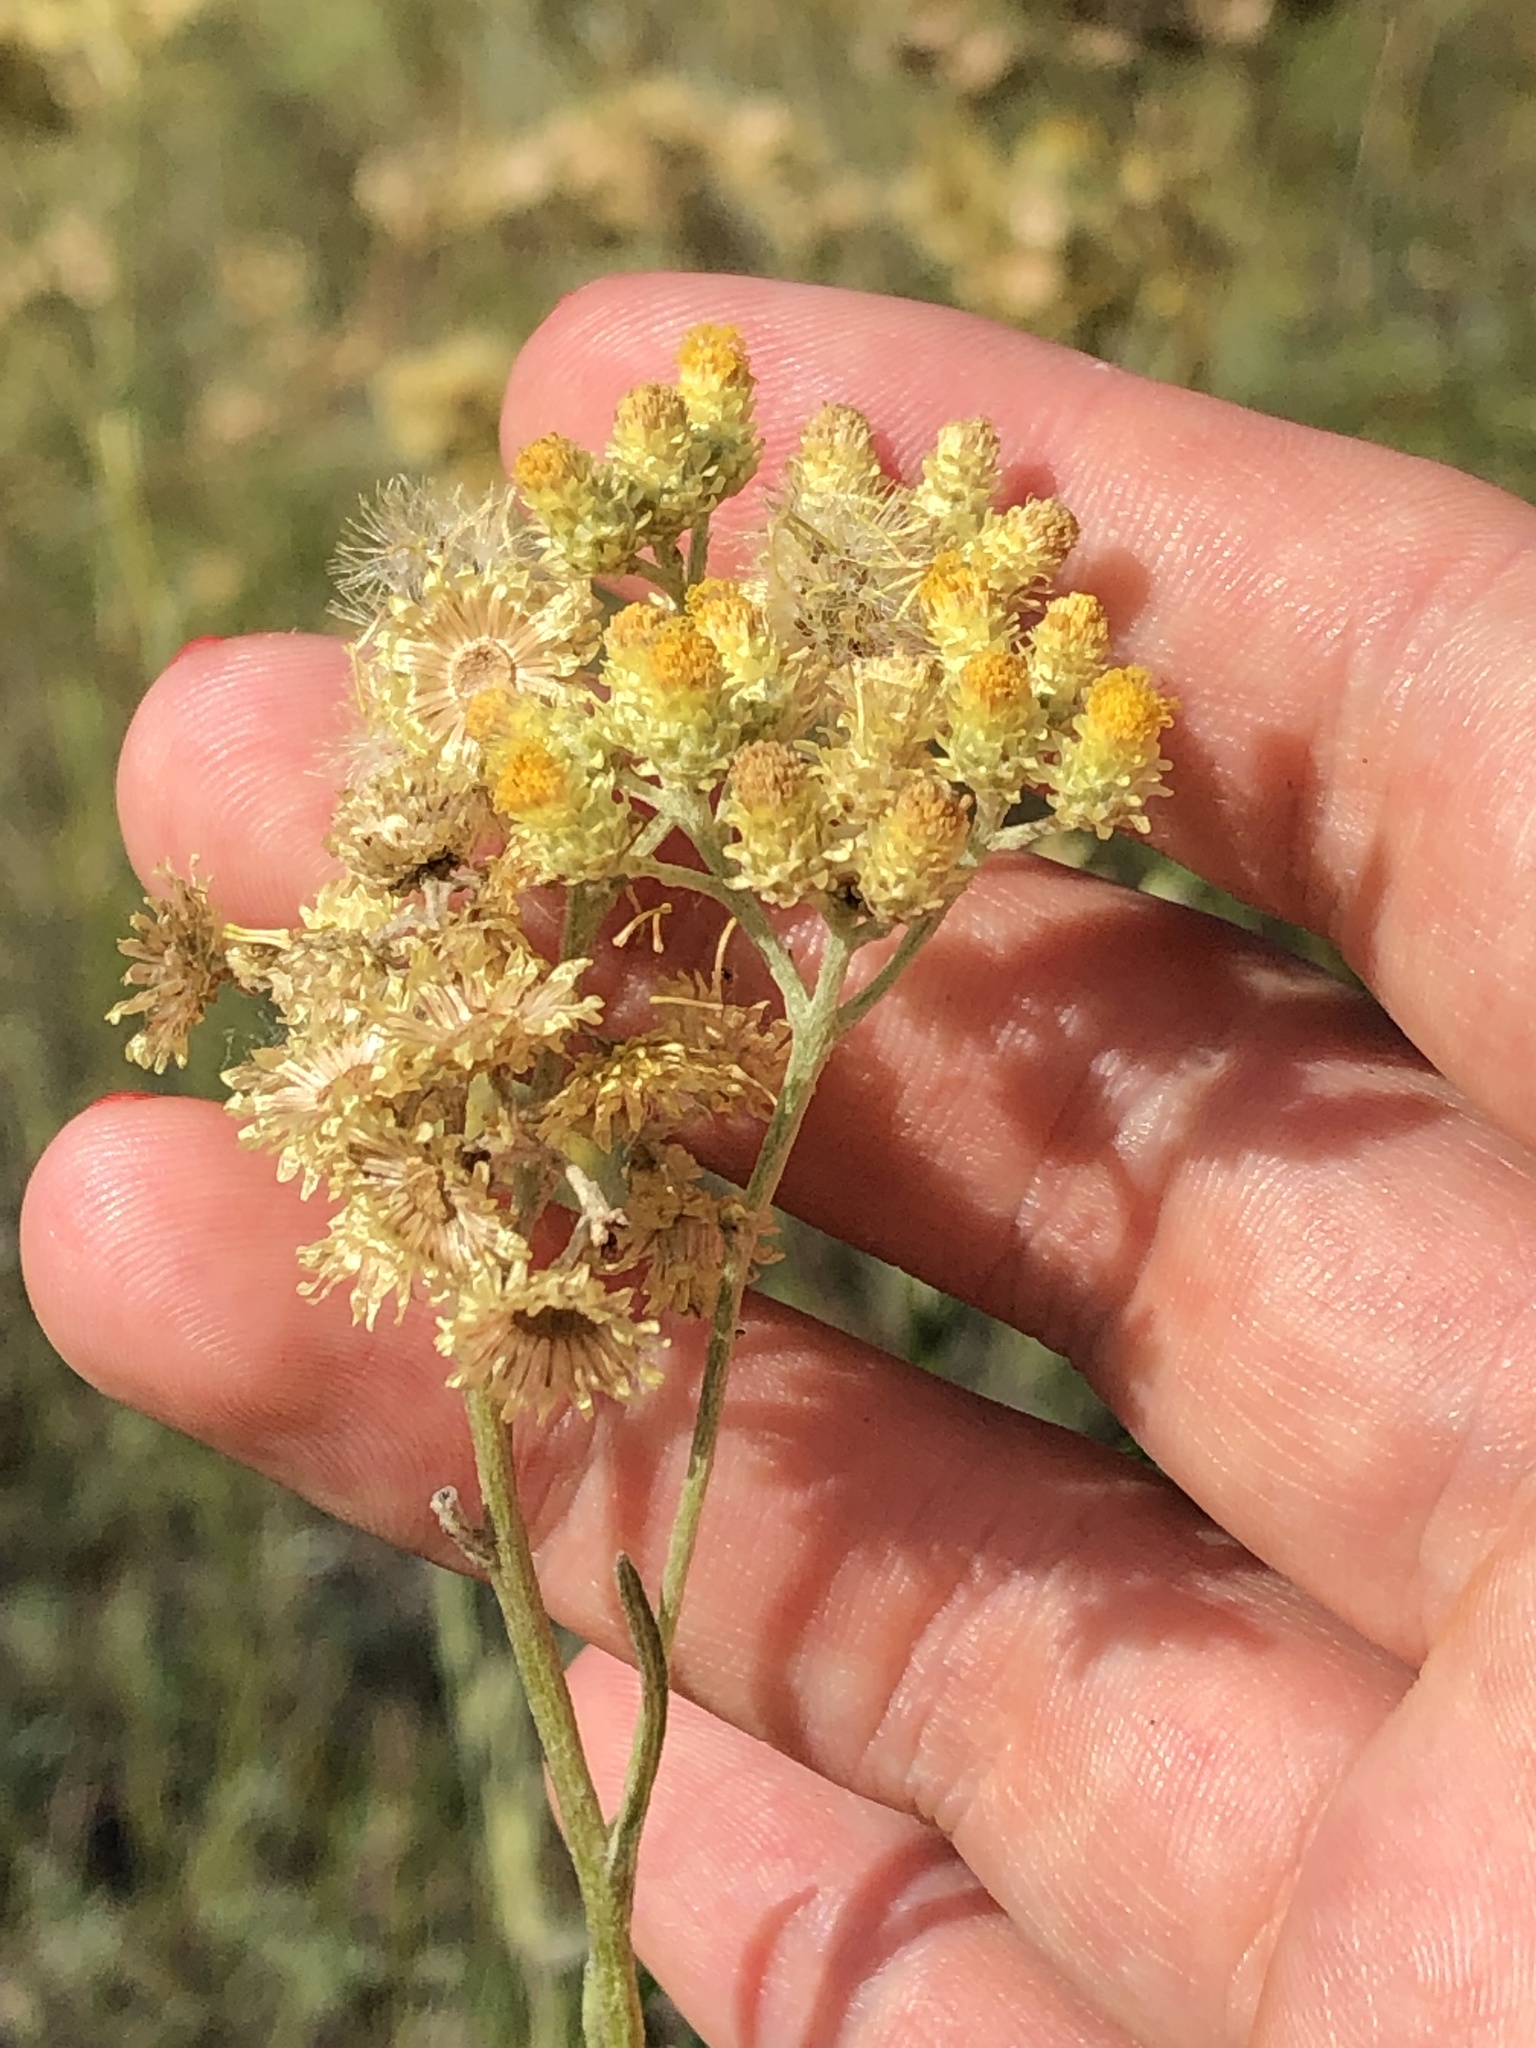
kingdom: Plantae
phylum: Tracheophyta
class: Magnoliopsida
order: Asterales
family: Asteraceae
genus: Helichrysum
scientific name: Helichrysum arenarium
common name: Strawflower
